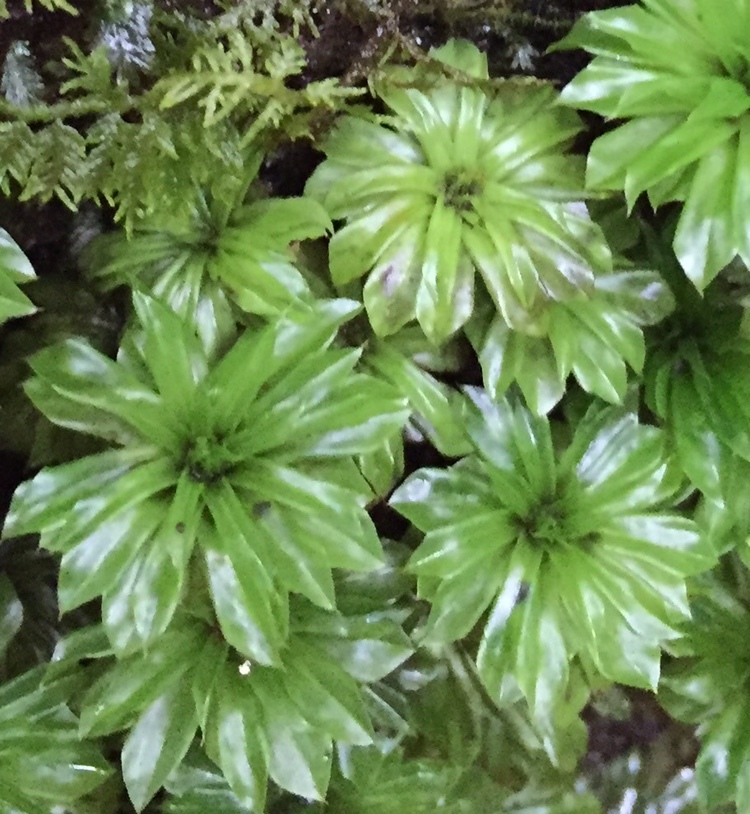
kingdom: Plantae
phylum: Bryophyta
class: Bryopsida
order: Bryales
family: Bryaceae
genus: Rhodobryum
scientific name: Rhodobryum ontariense
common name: Ontario rhodobryum moss
